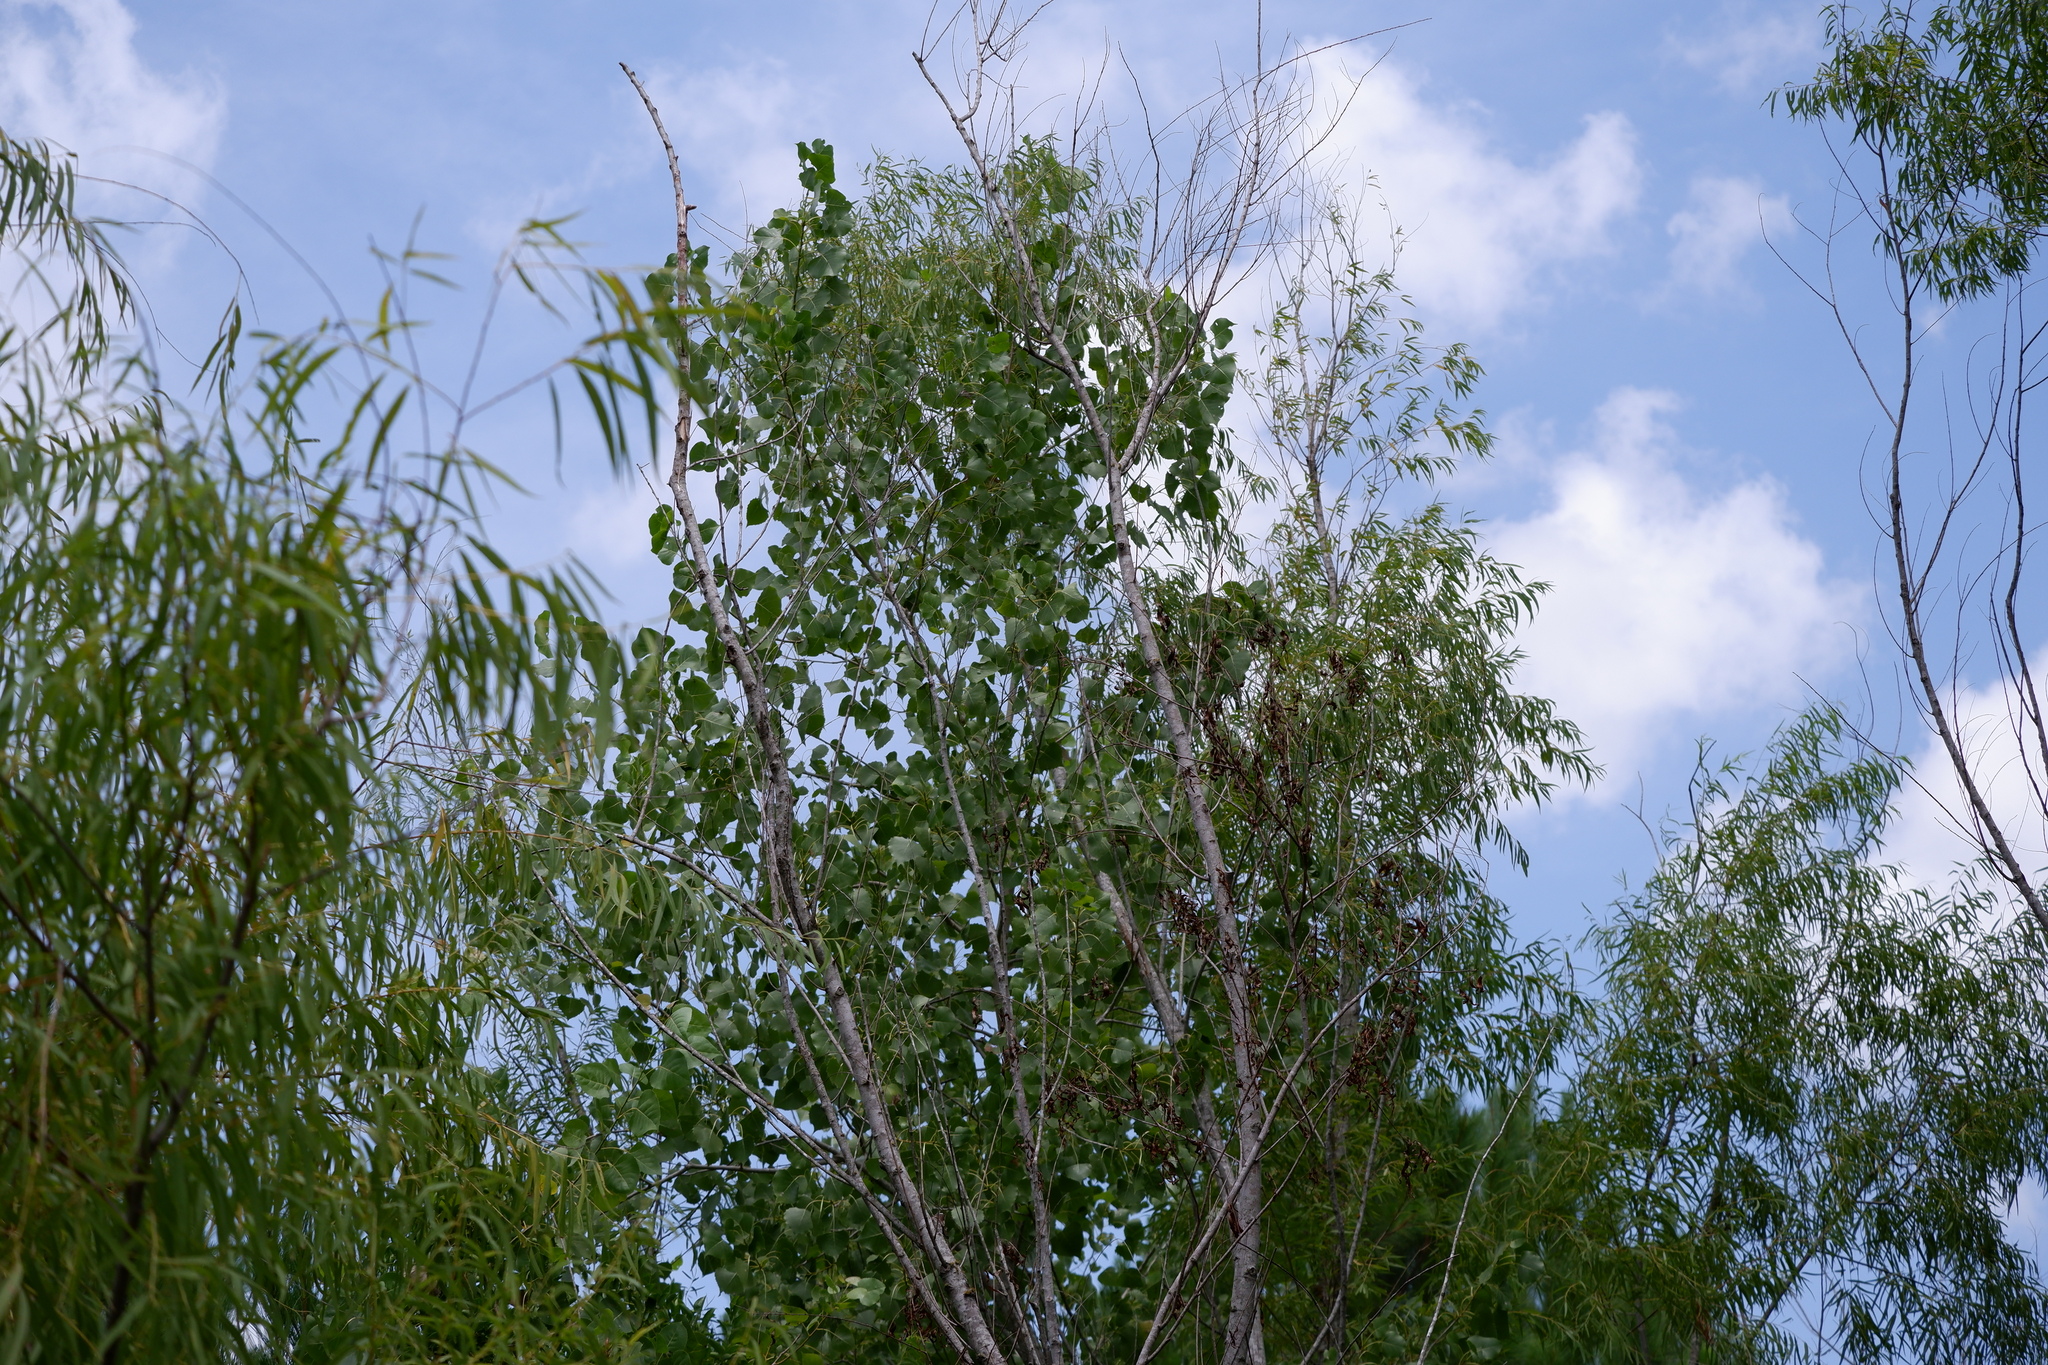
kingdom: Plantae
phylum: Tracheophyta
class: Magnoliopsida
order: Malpighiales
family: Salicaceae
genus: Populus
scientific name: Populus deltoides
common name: Eastern cottonwood
